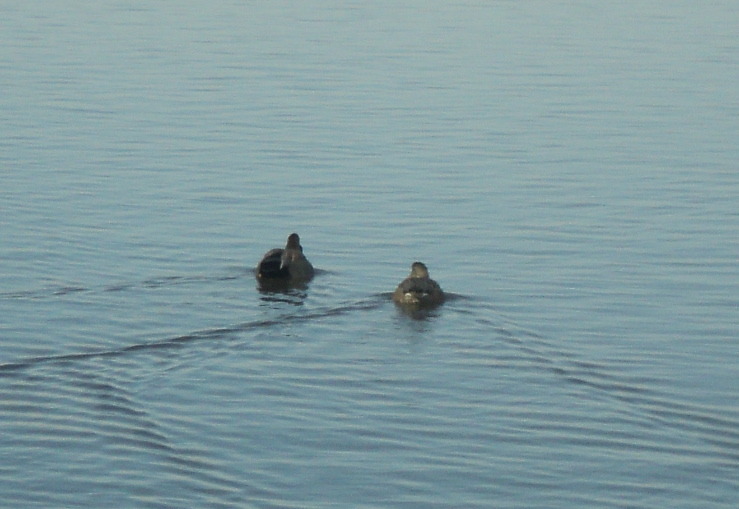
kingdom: Animalia
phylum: Chordata
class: Aves
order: Anseriformes
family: Anatidae
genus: Mareca
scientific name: Mareca strepera
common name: Gadwall
